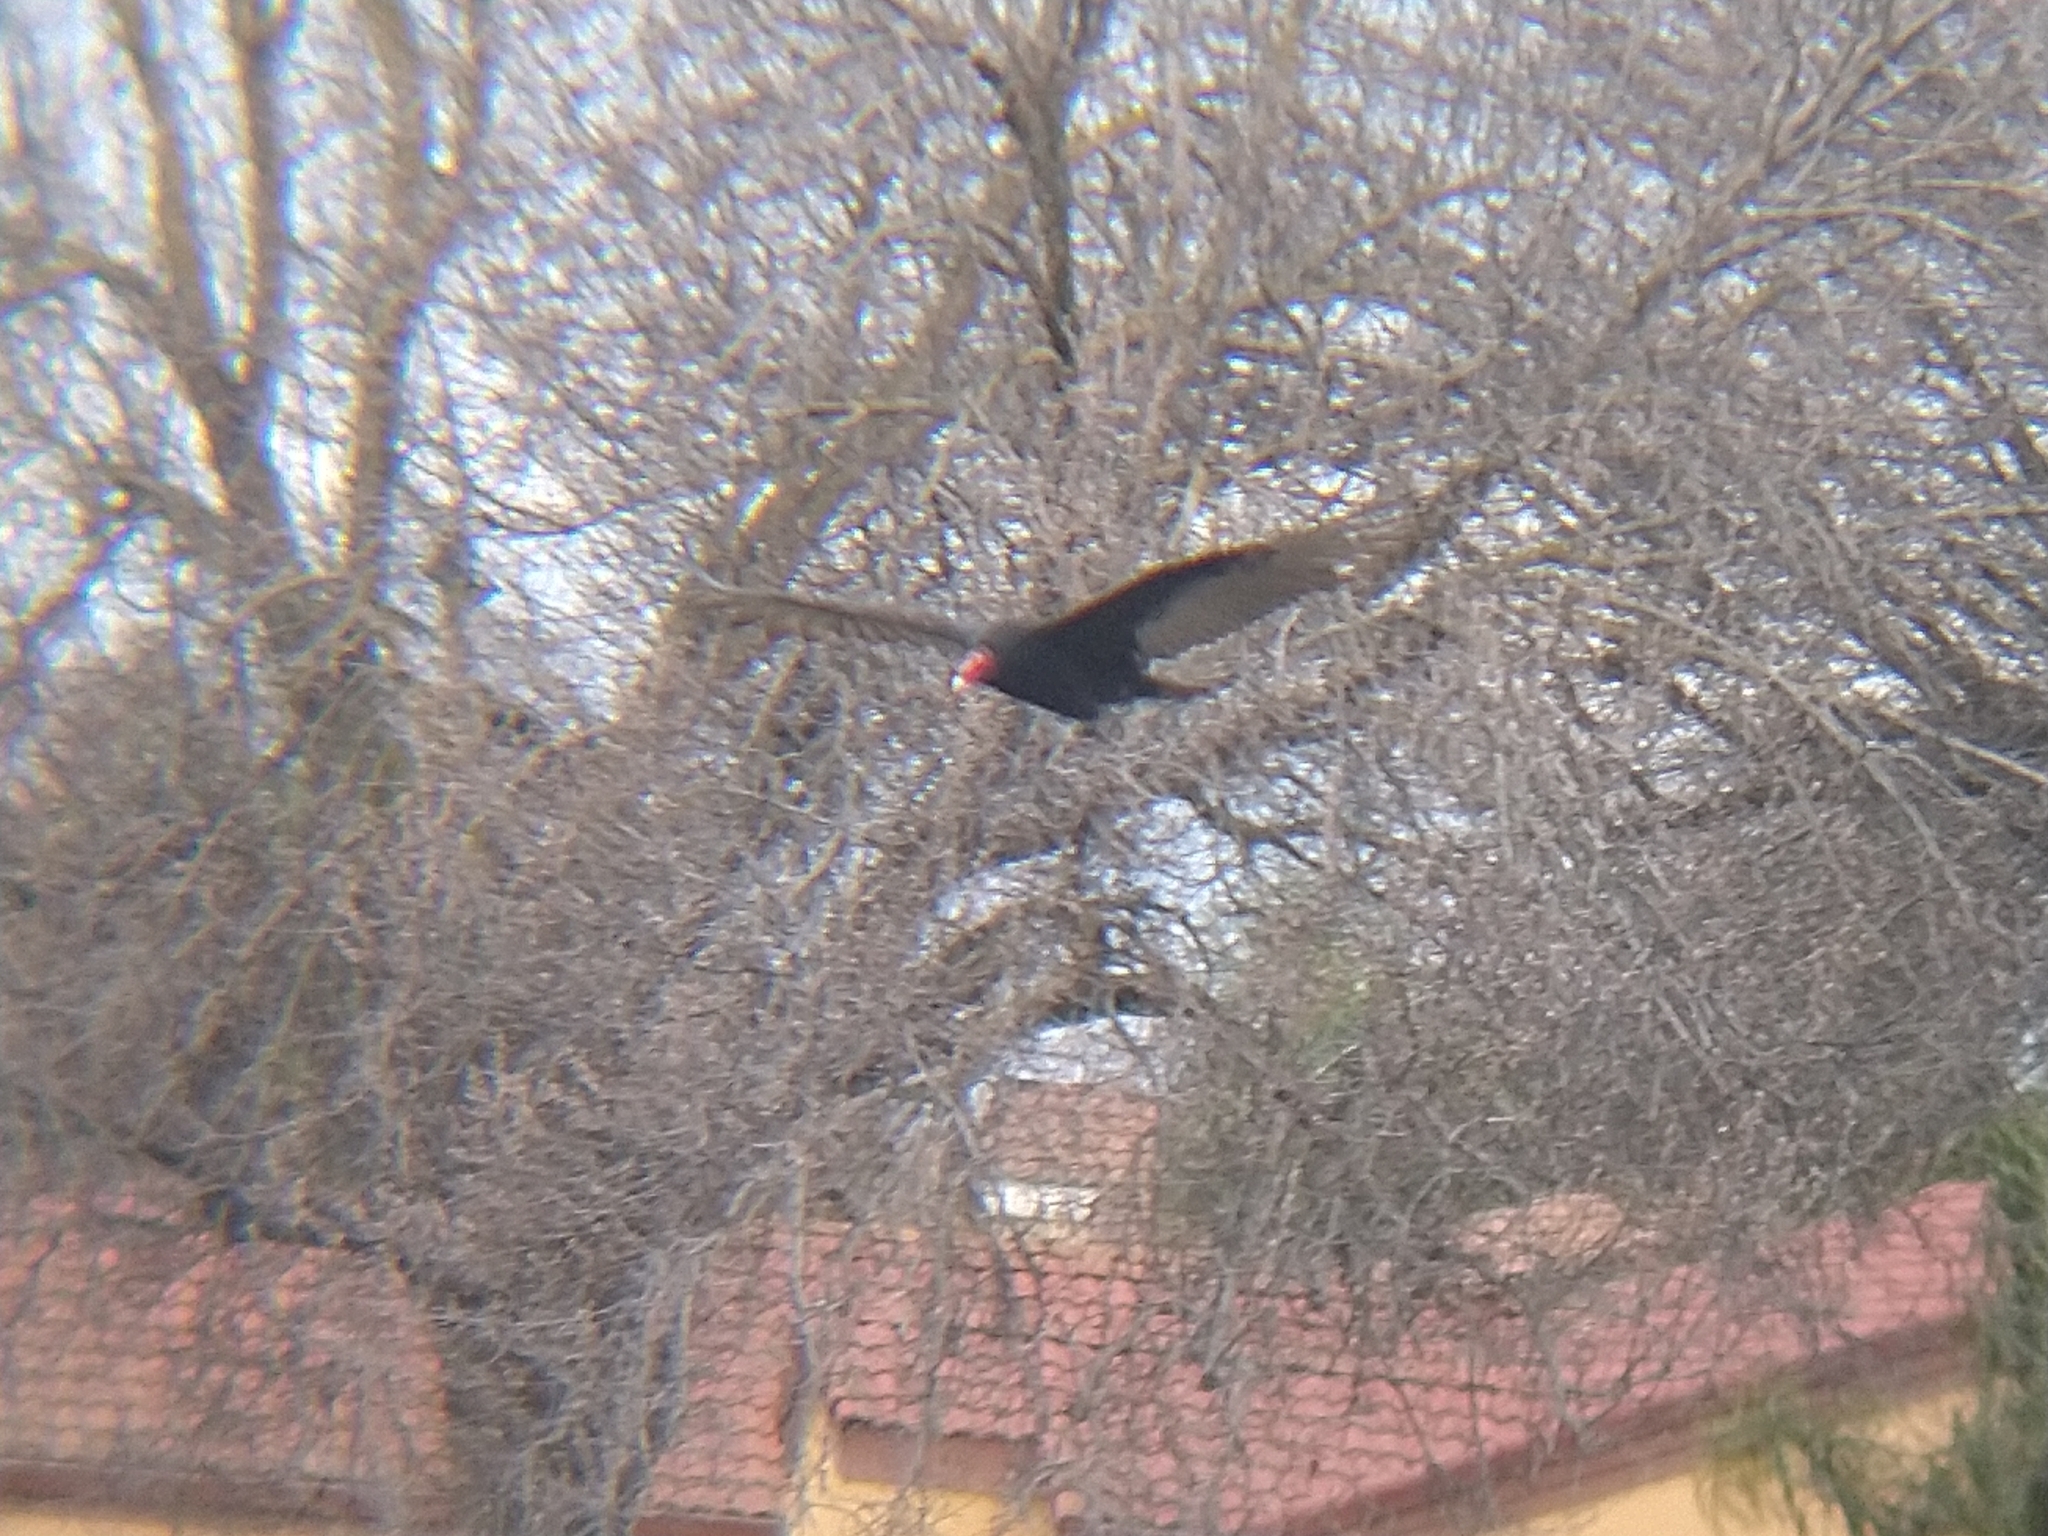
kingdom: Animalia
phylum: Chordata
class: Aves
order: Accipitriformes
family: Cathartidae
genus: Cathartes
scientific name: Cathartes aura
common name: Turkey vulture
